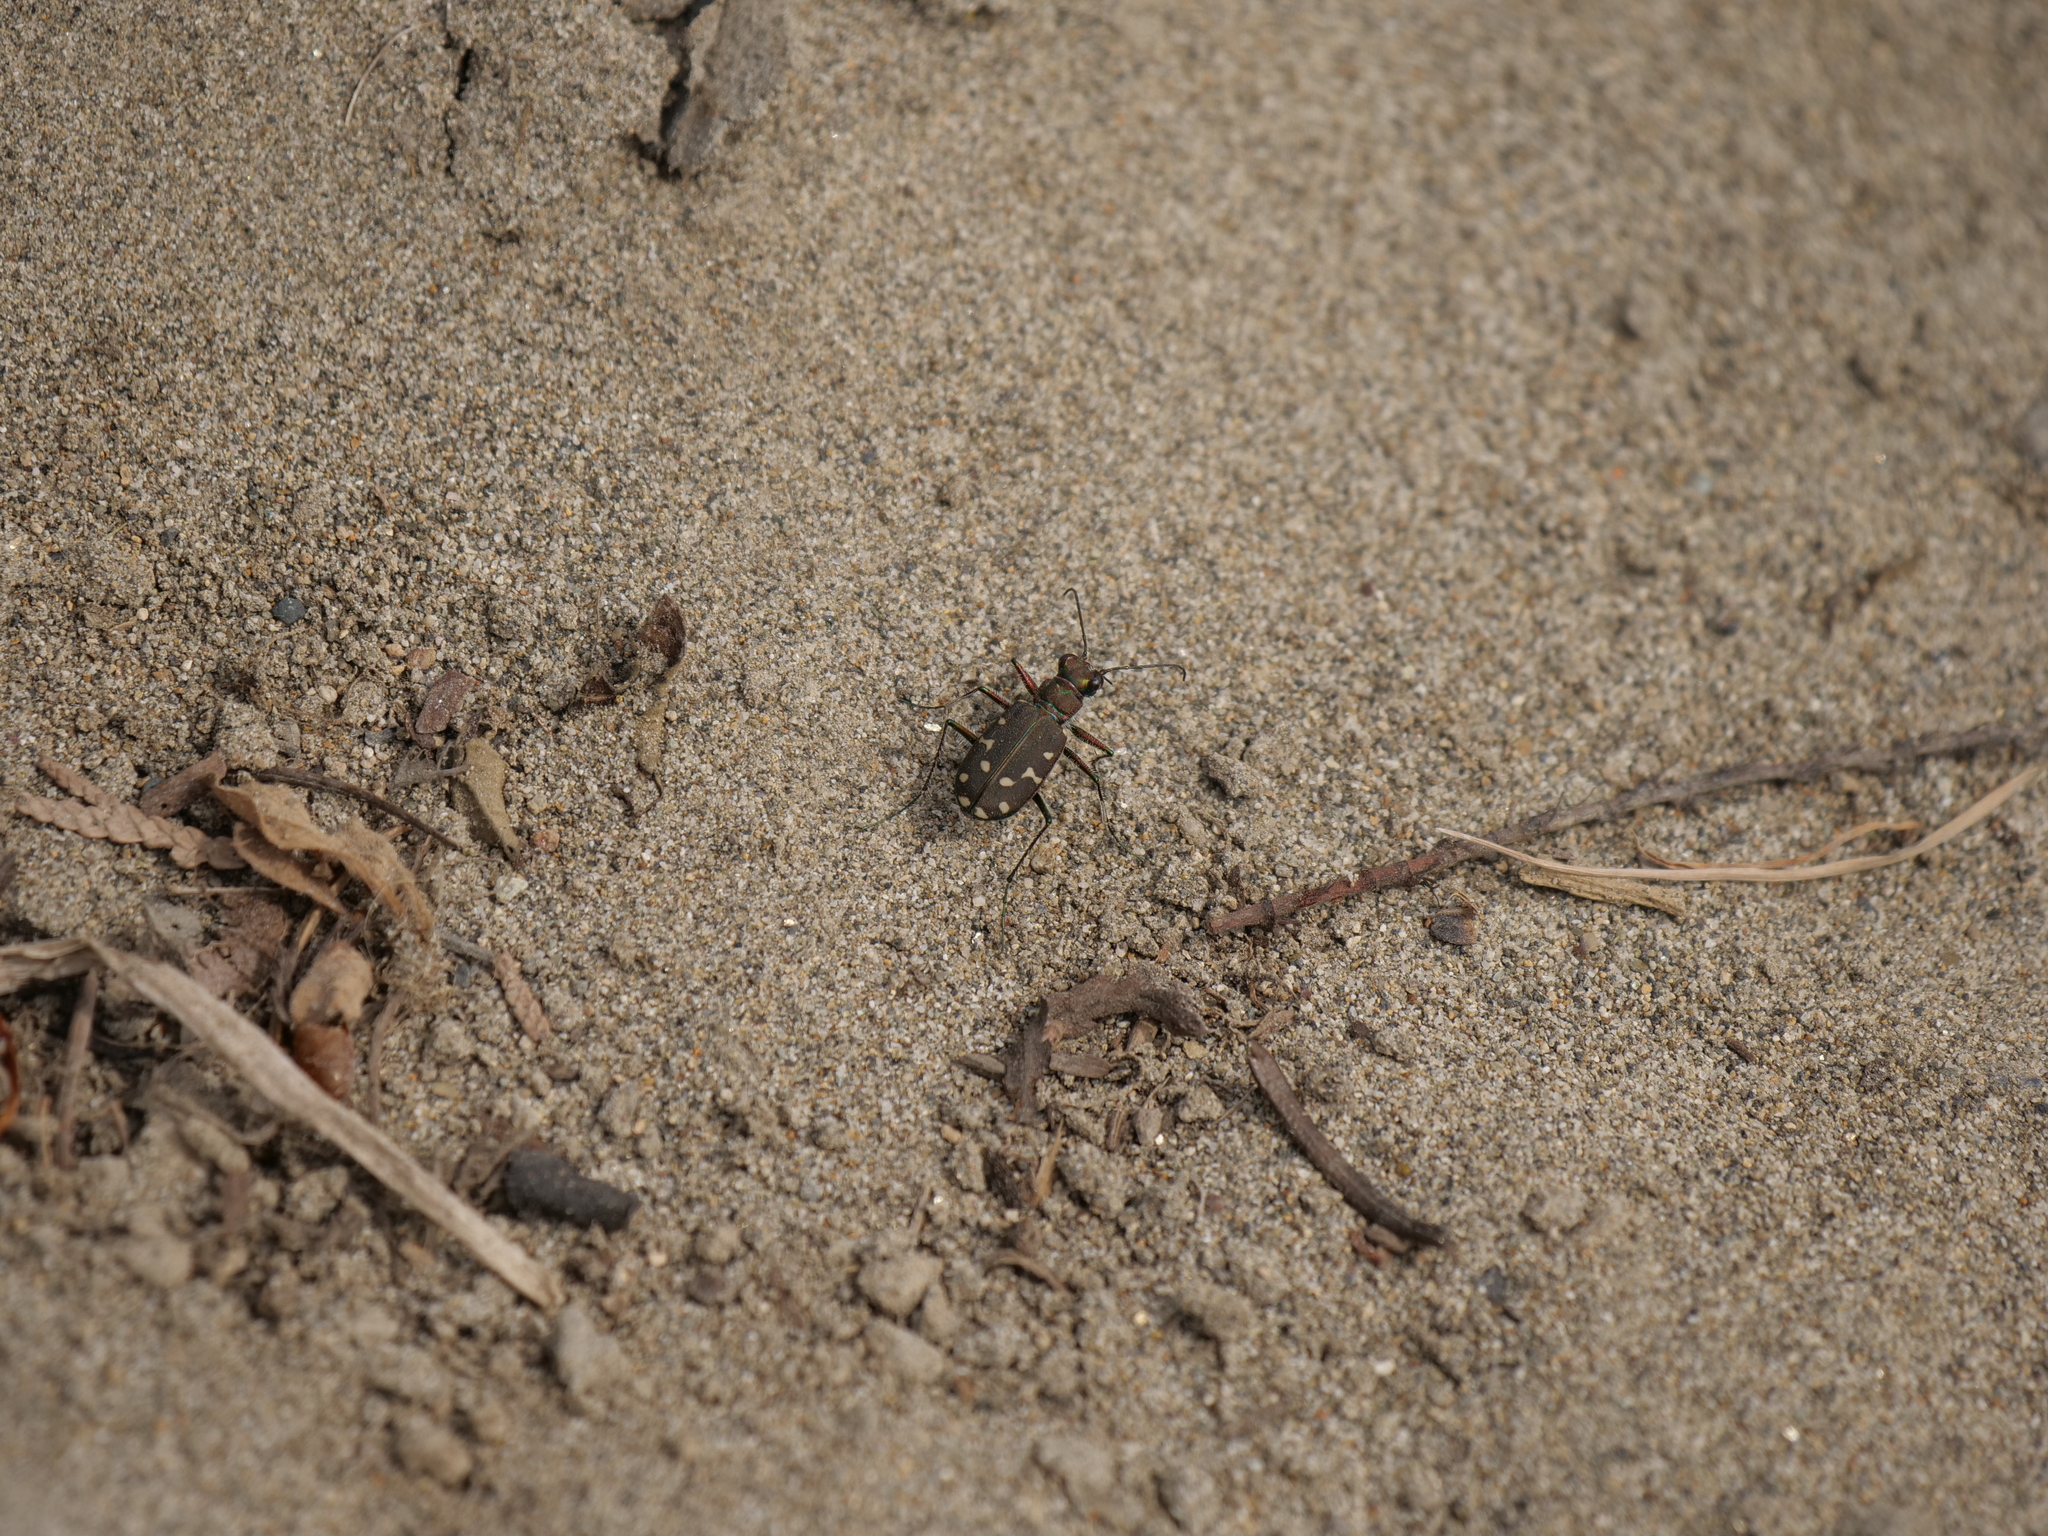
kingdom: Animalia
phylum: Arthropoda
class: Insecta
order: Coleoptera
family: Carabidae
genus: Cicindela
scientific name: Cicindela oregona
